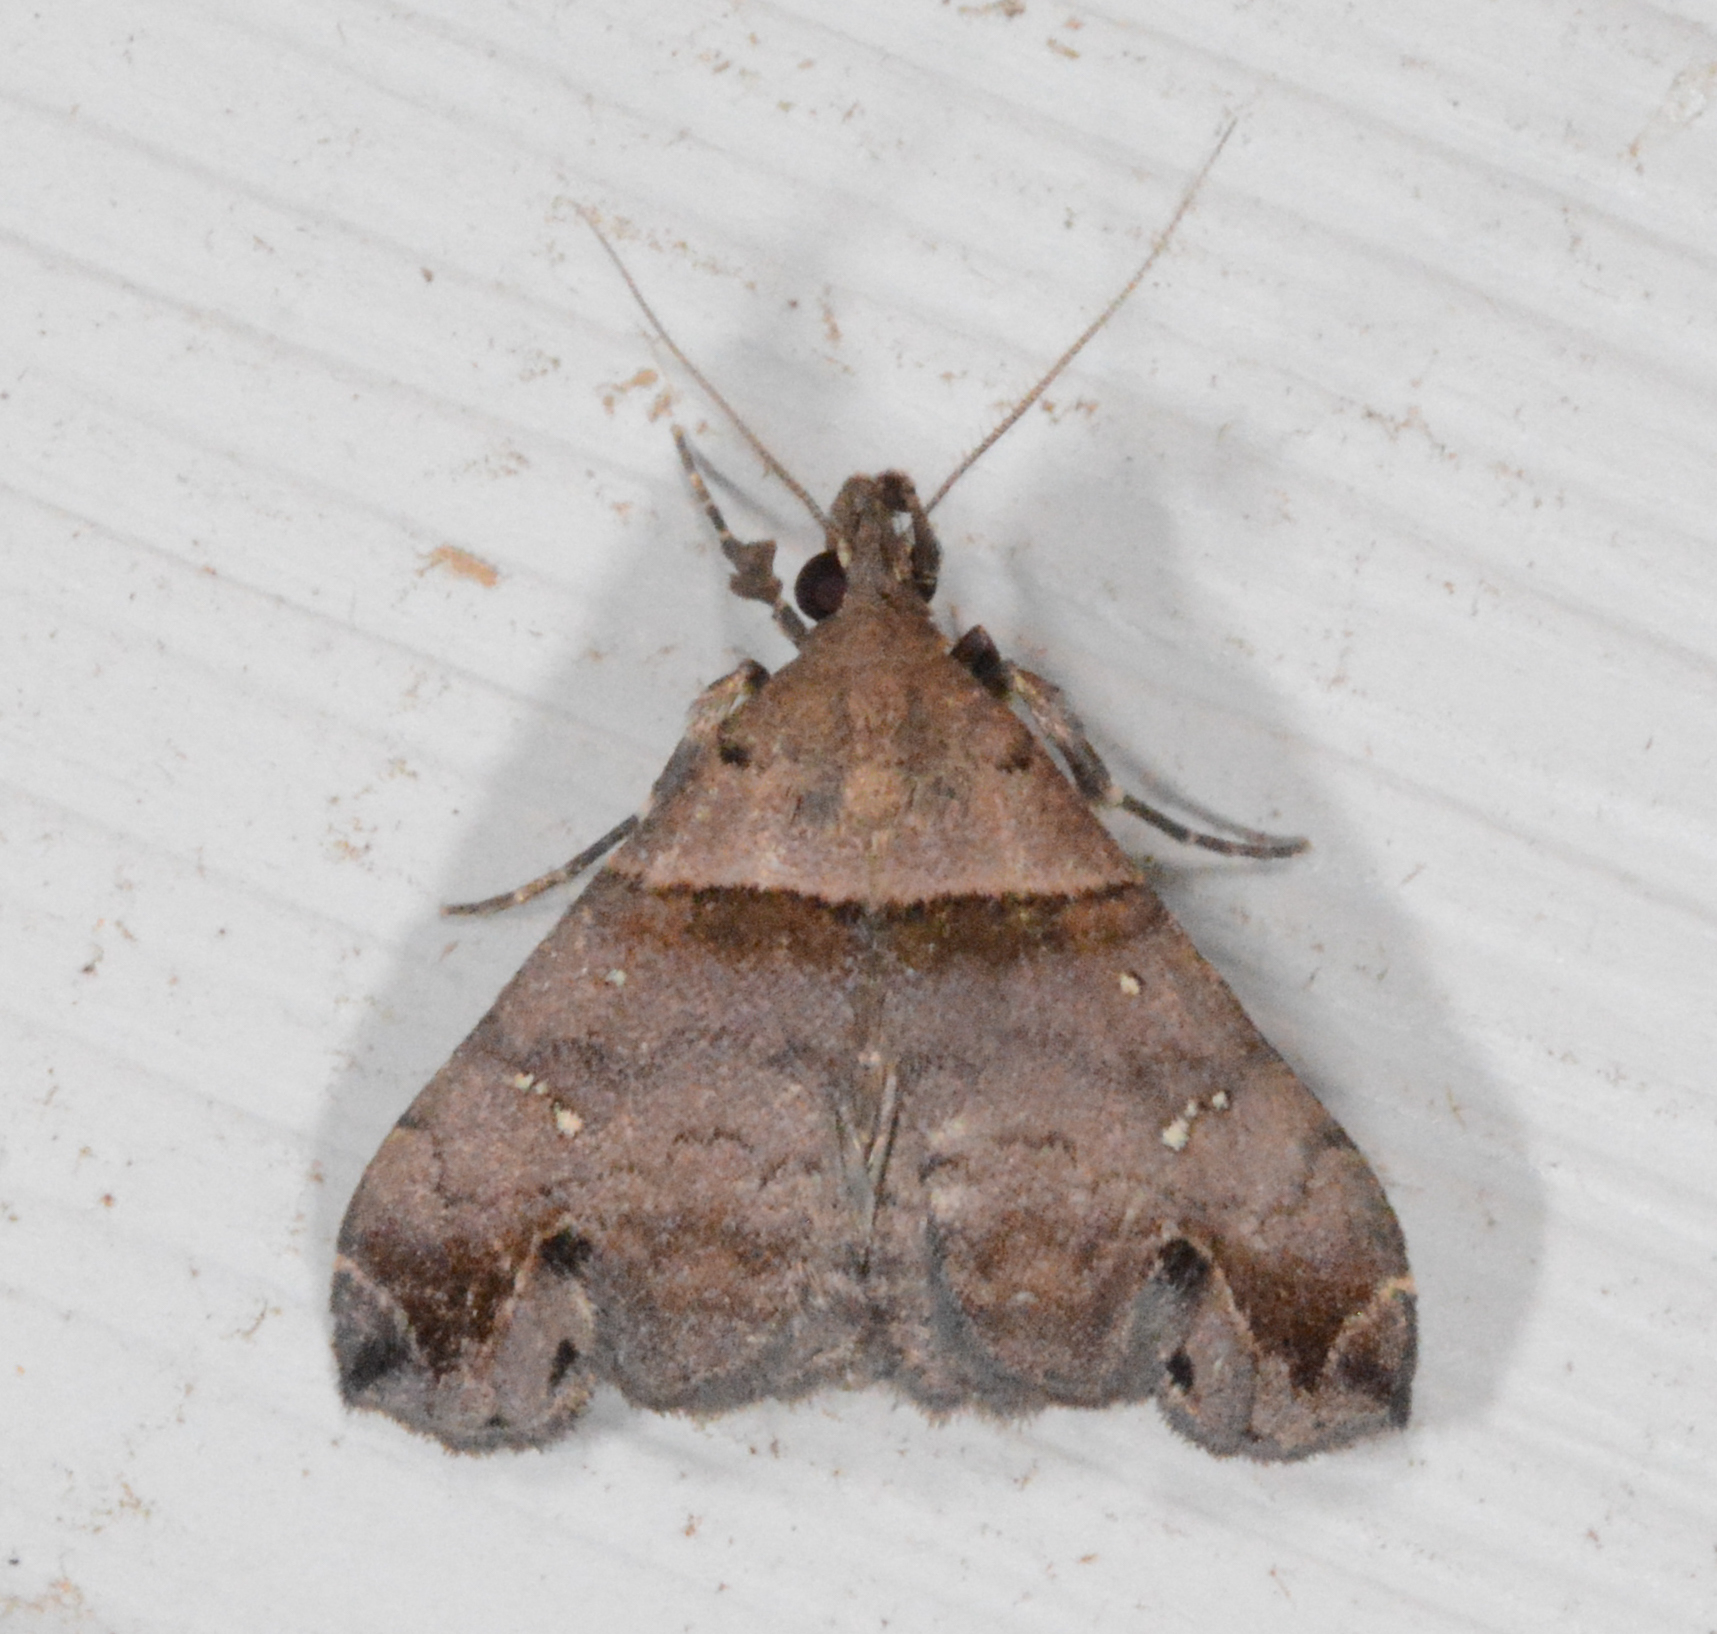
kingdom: Animalia
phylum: Arthropoda
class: Insecta
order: Lepidoptera
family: Erebidae
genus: Lascoria
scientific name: Lascoria ambigualis
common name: Ambiguous moth
